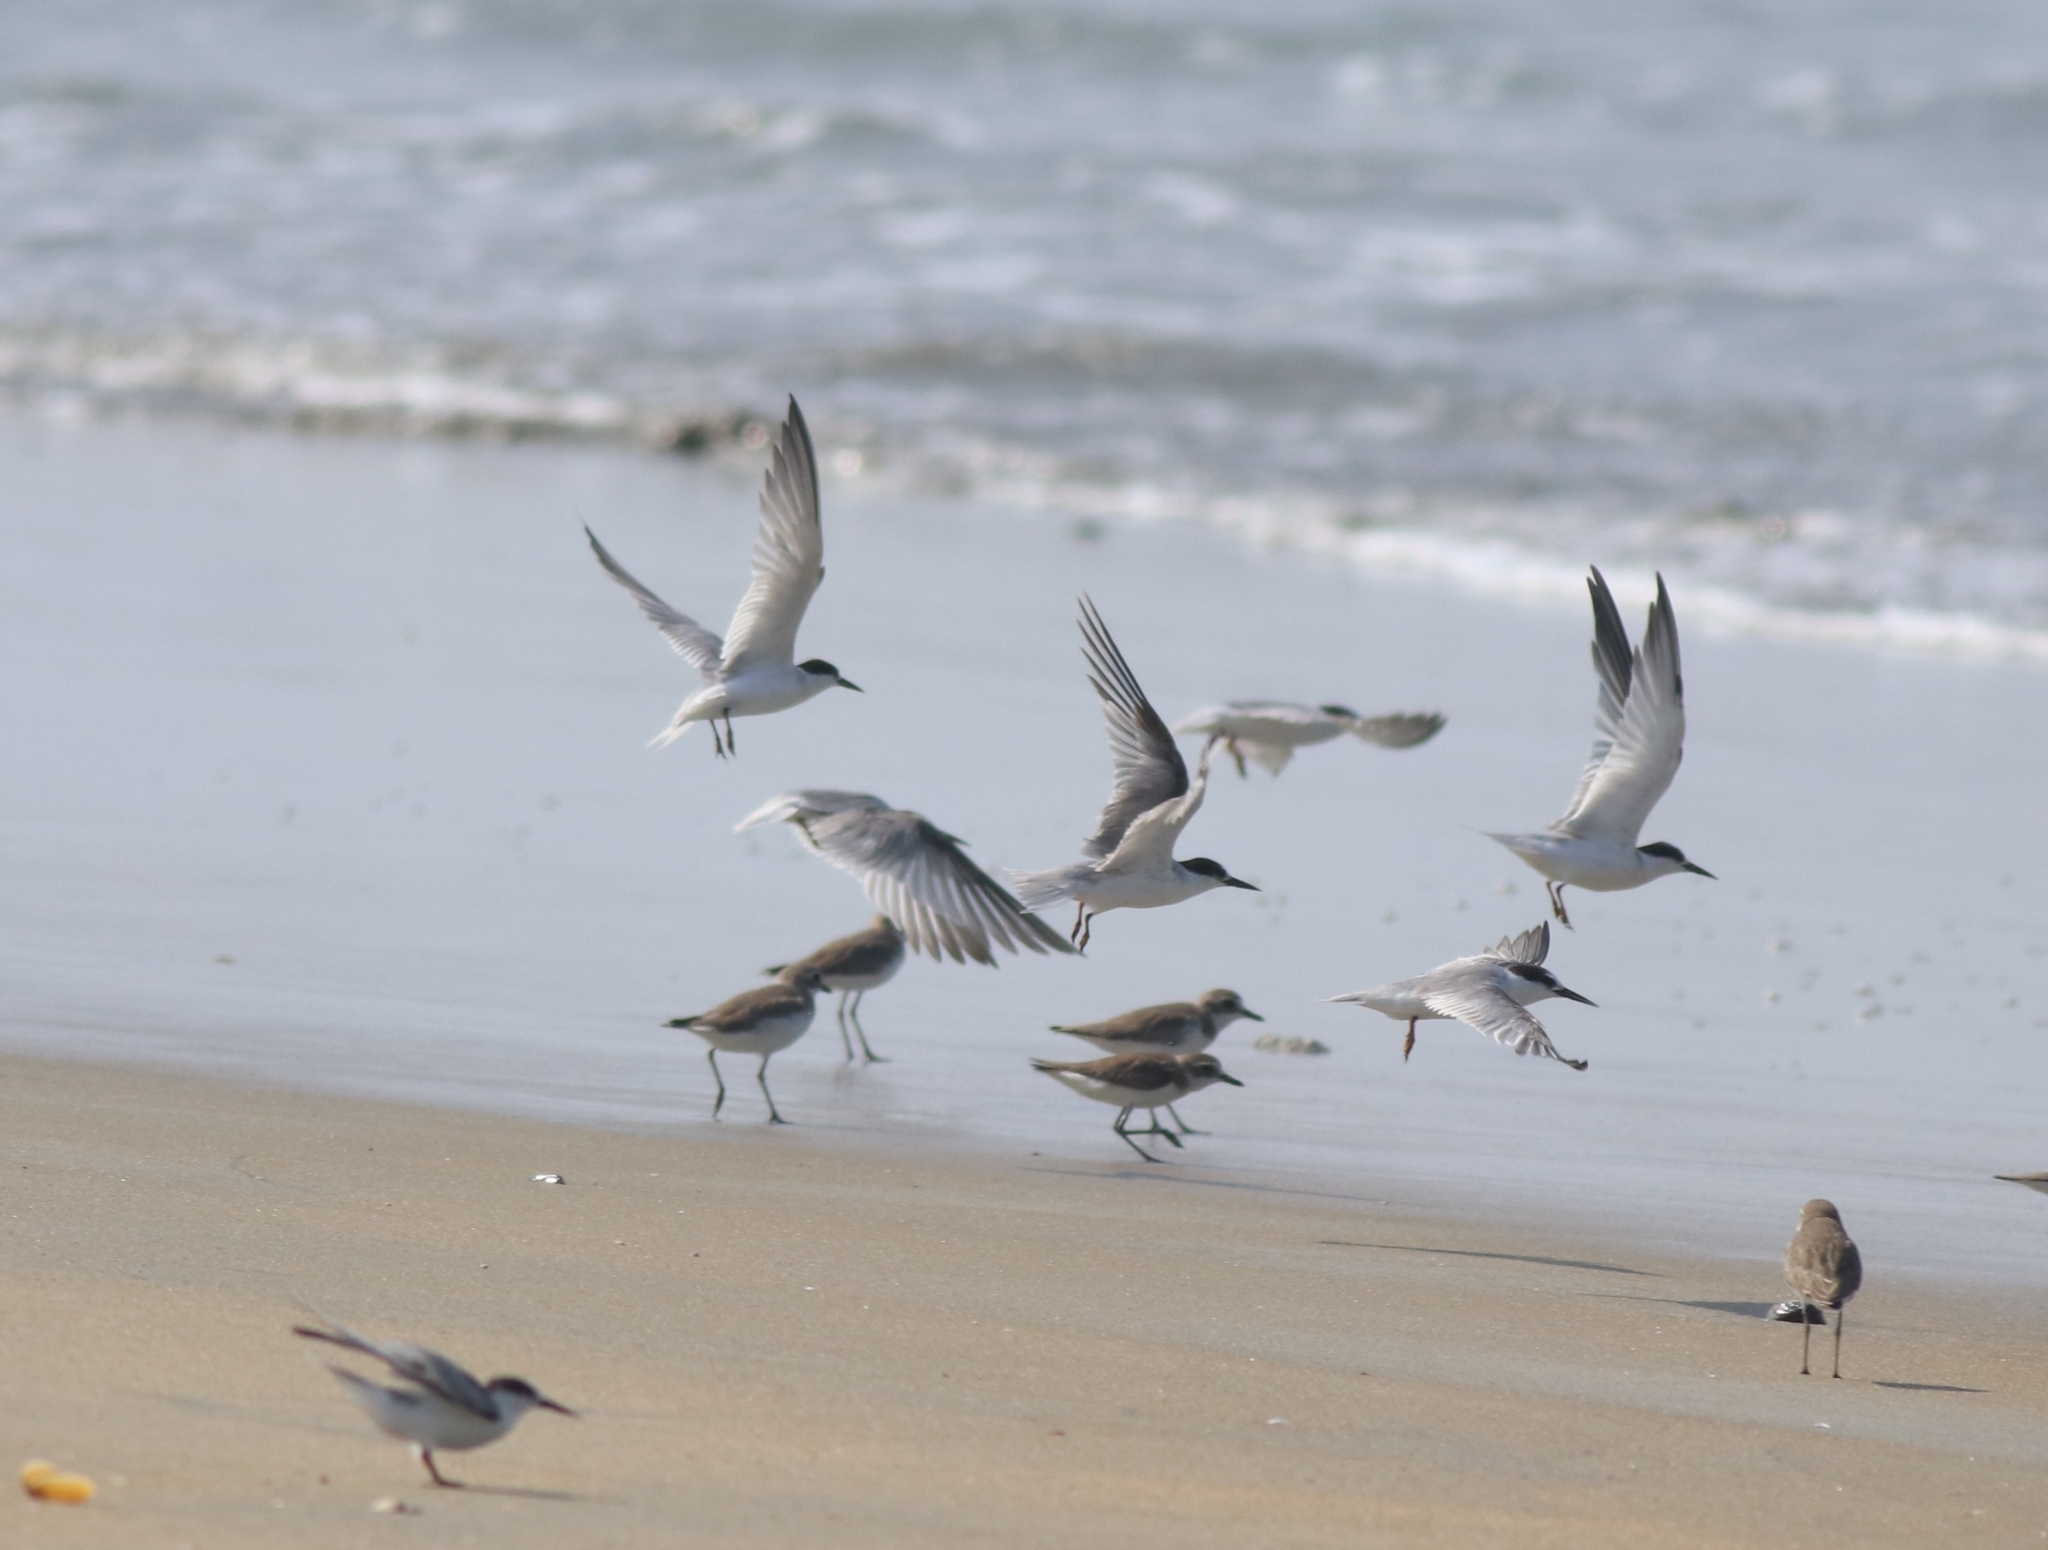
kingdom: Animalia
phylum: Chordata
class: Aves
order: Charadriiformes
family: Laridae
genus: Sternula
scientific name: Sternula albifrons
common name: Little tern
